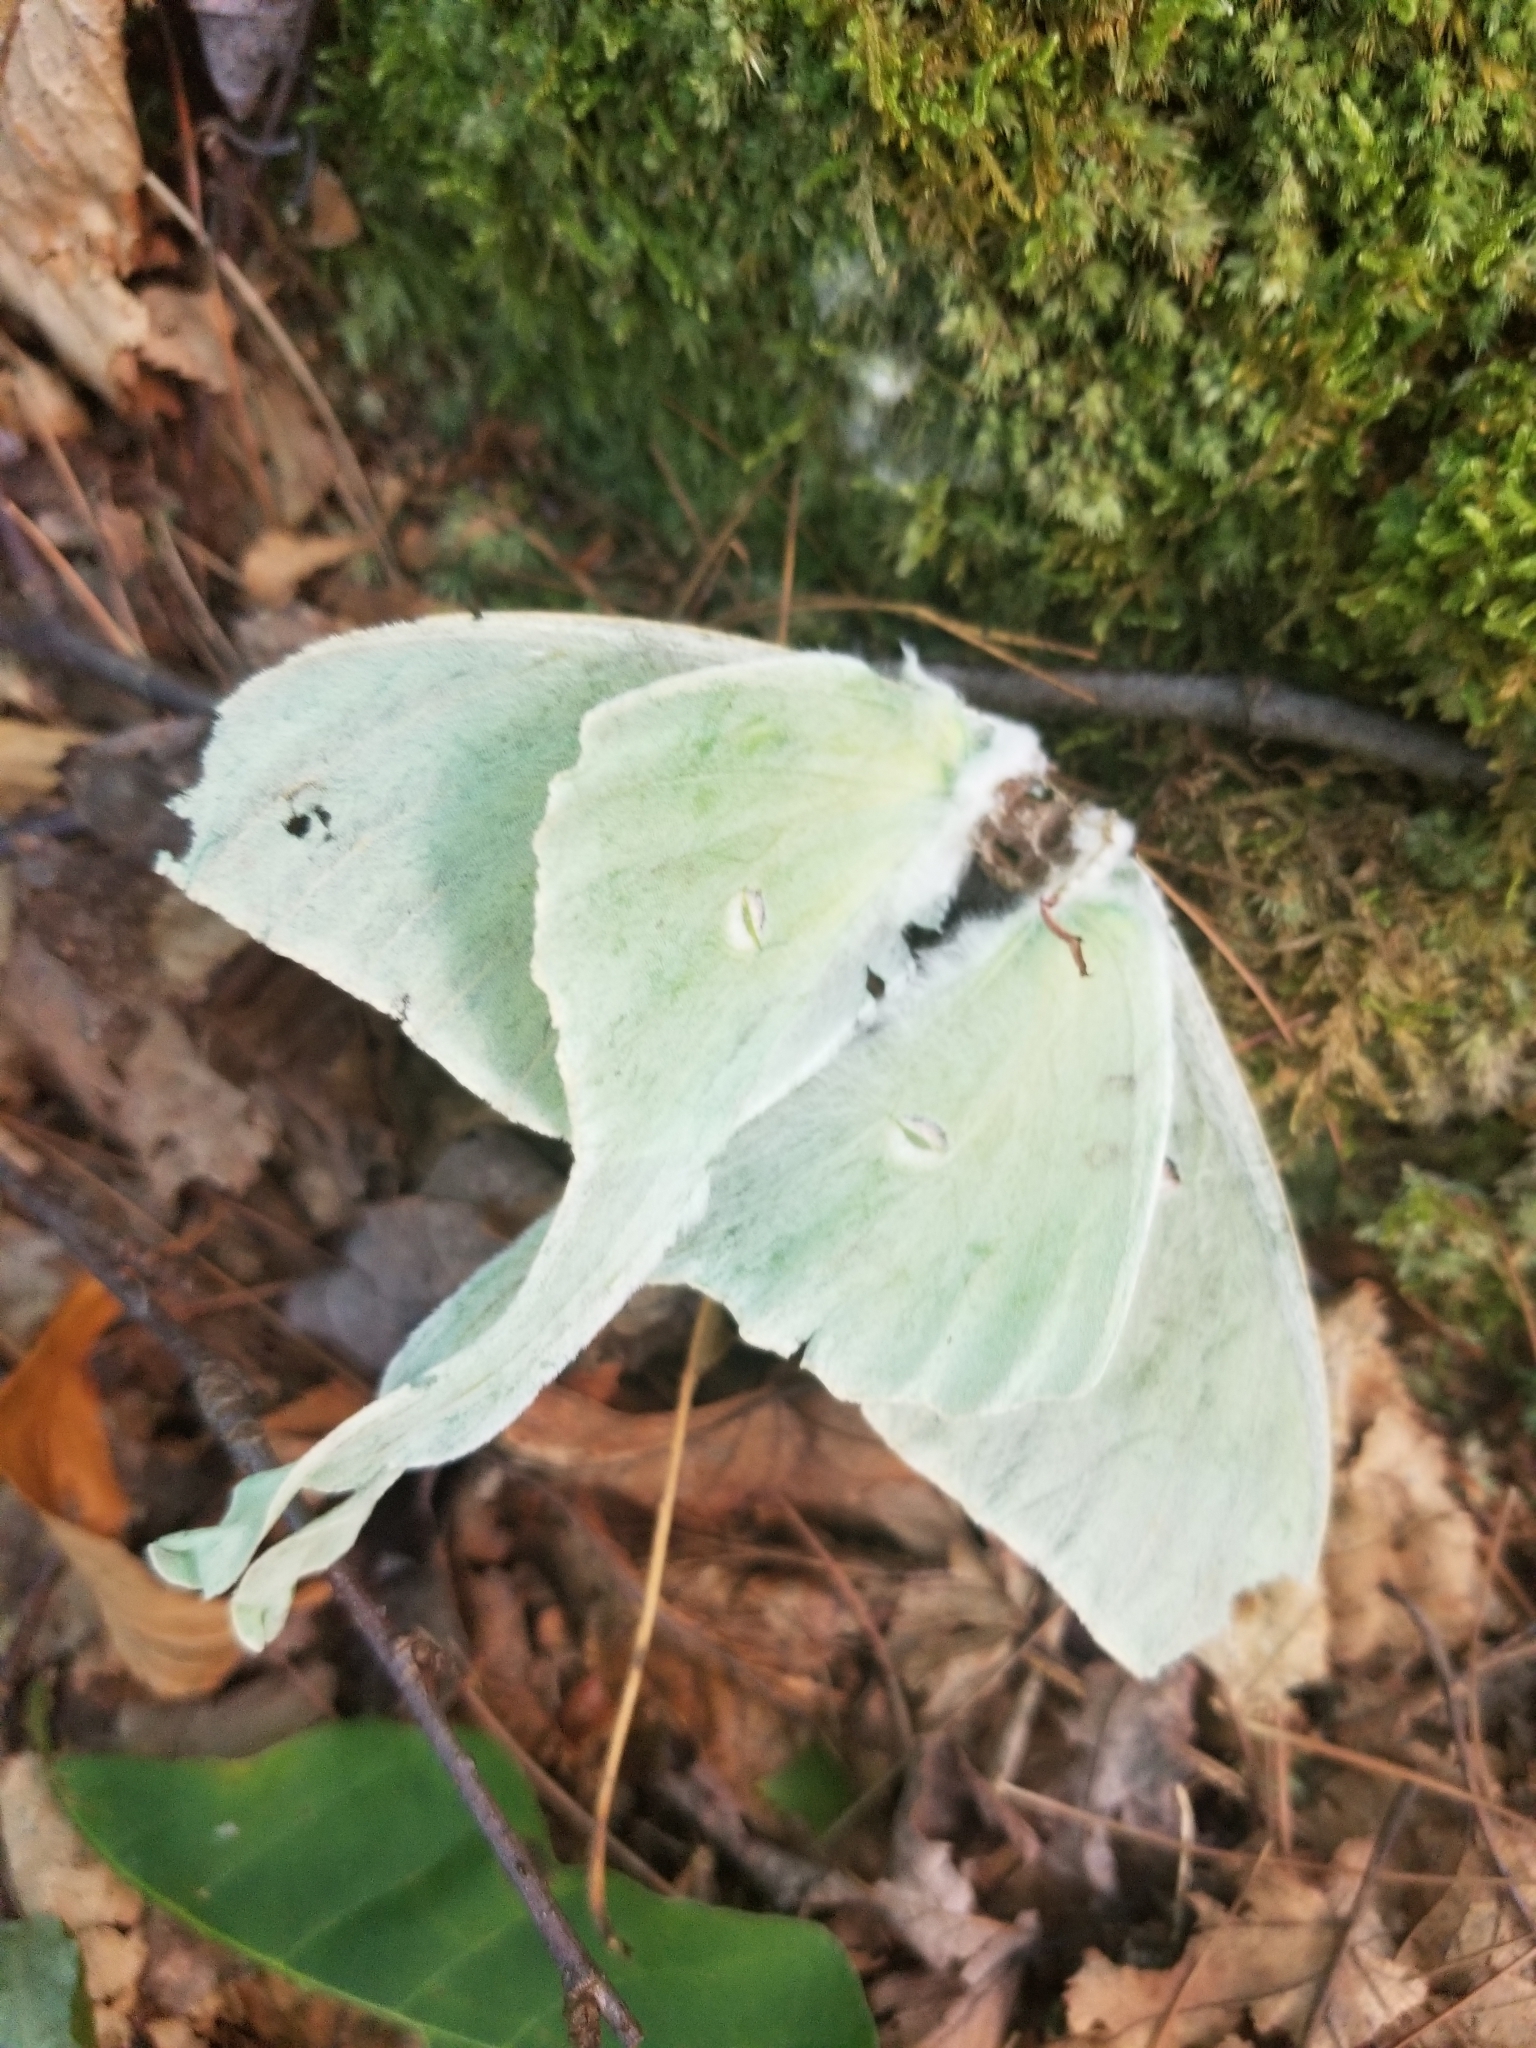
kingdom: Animalia
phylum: Arthropoda
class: Insecta
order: Lepidoptera
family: Saturniidae
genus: Actias
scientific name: Actias luna
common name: Luna moth
